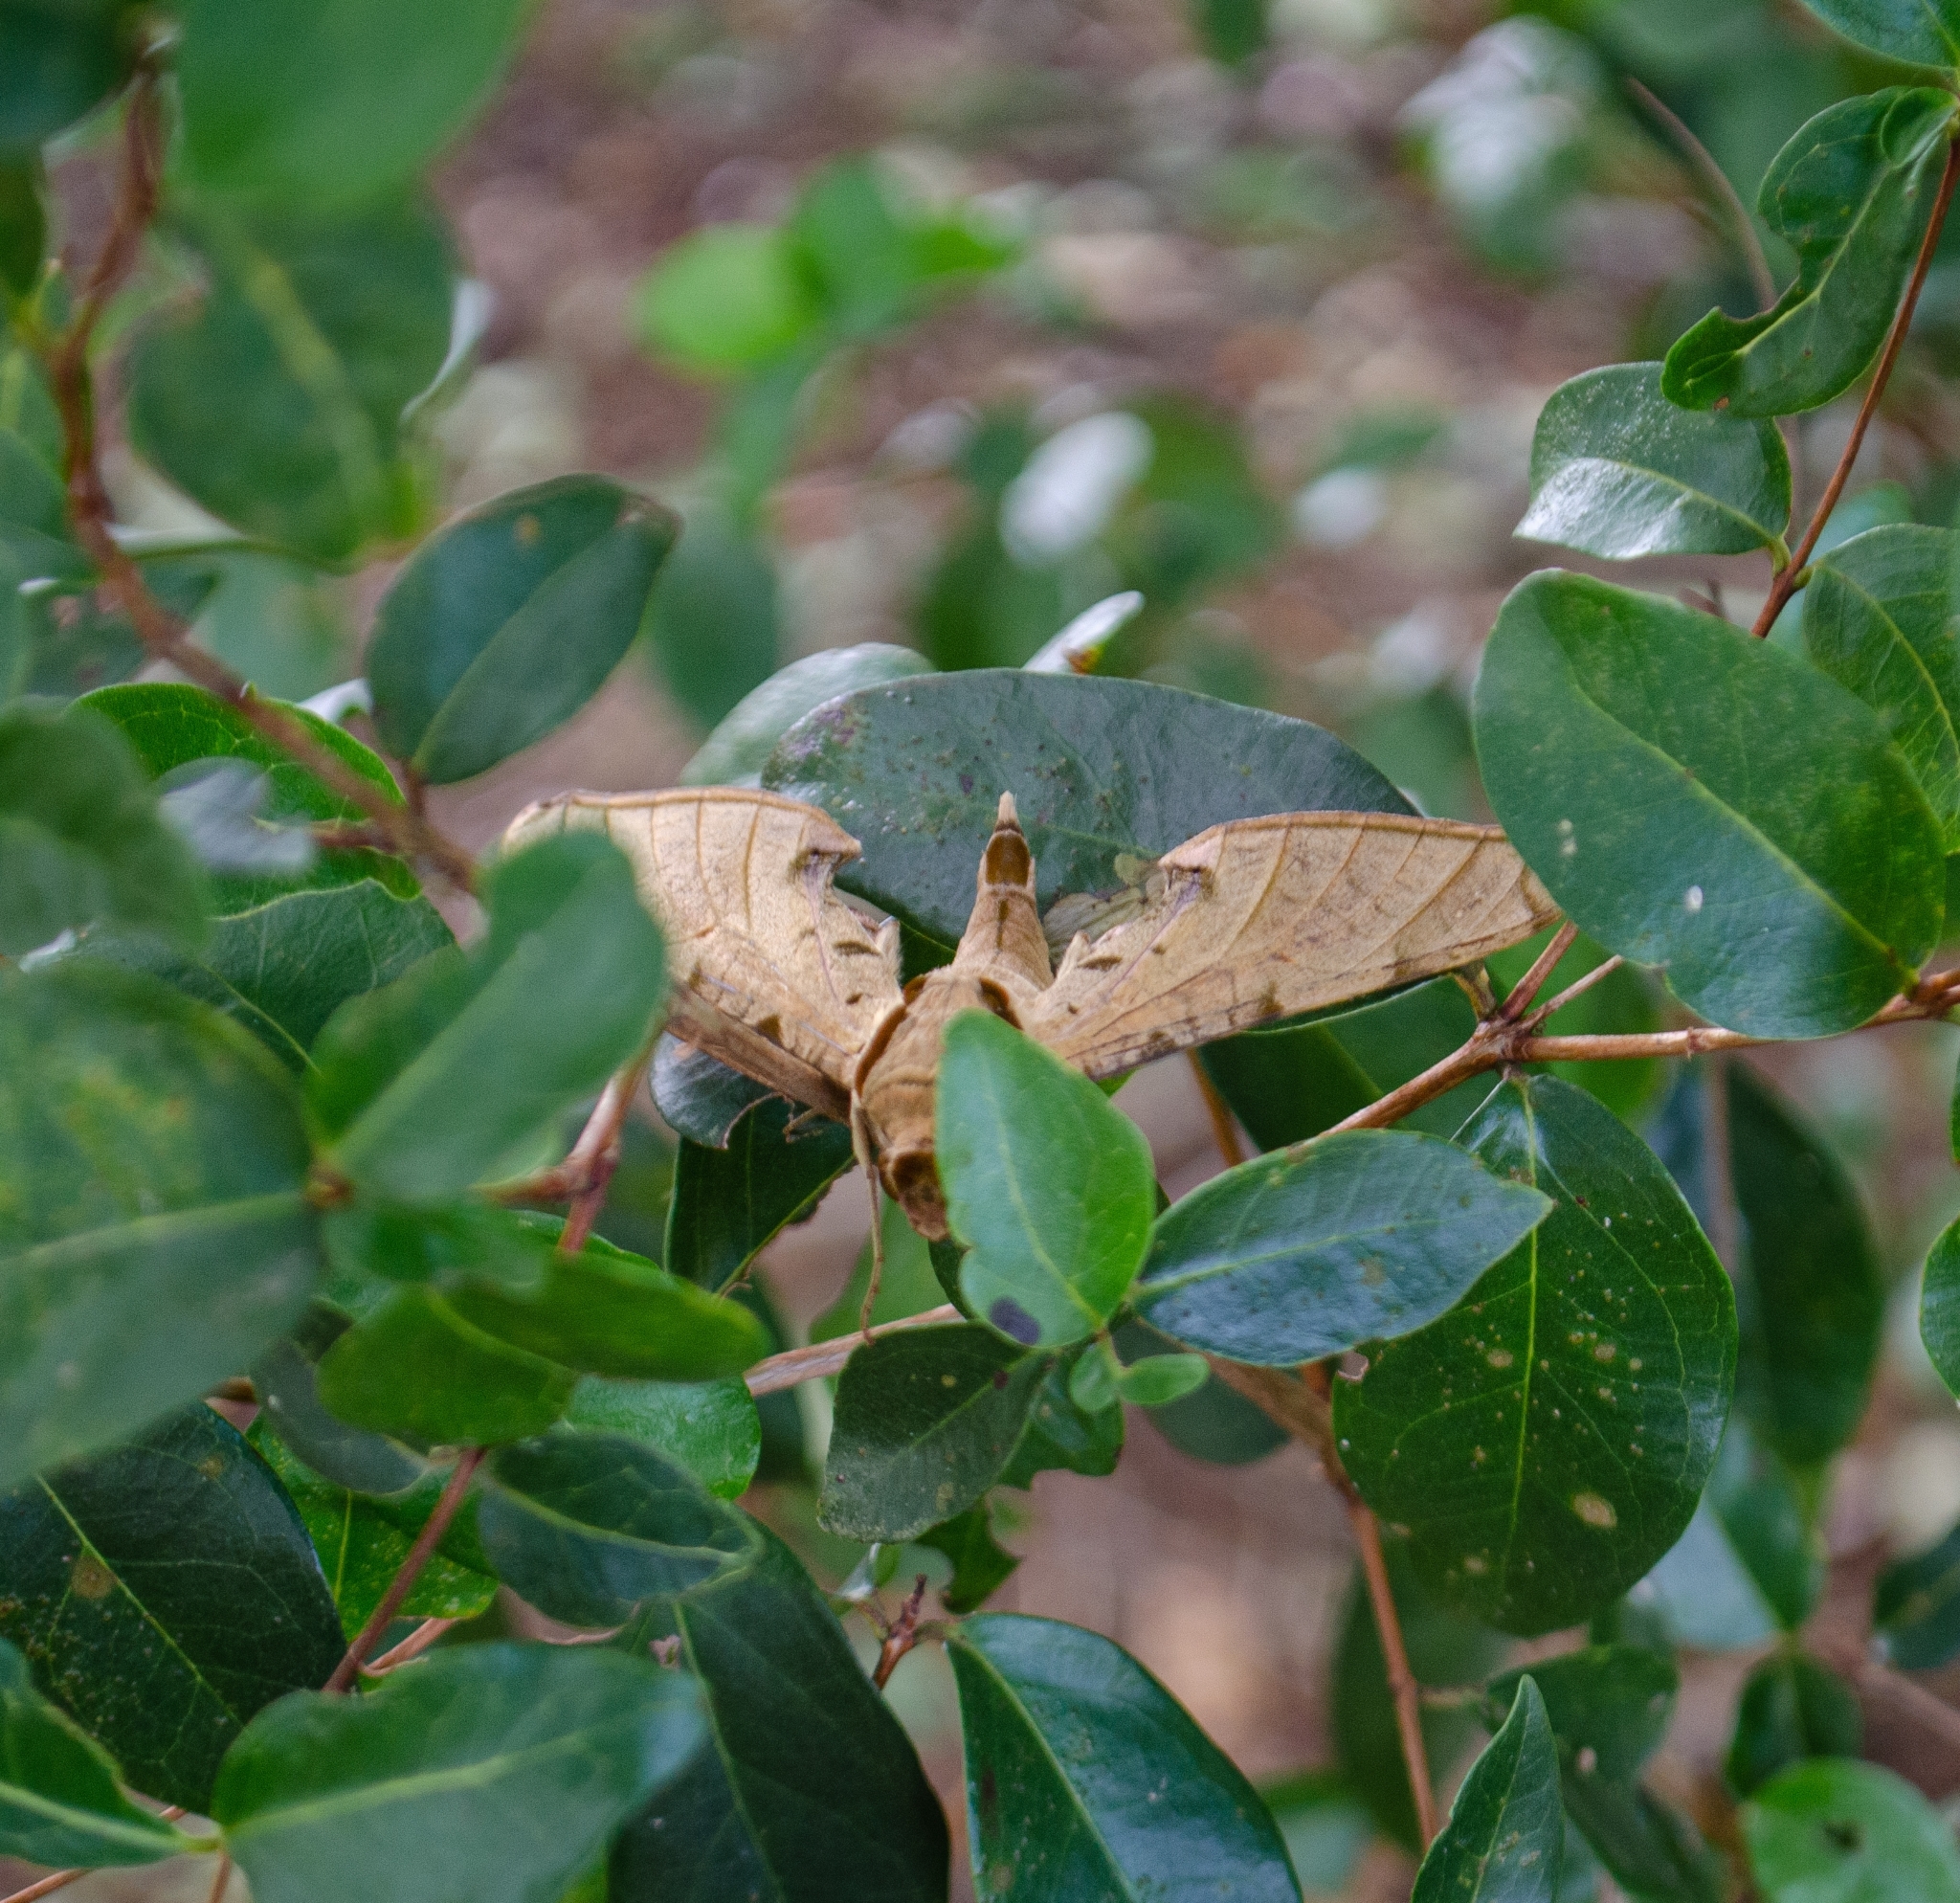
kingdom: Animalia
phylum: Arthropoda
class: Insecta
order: Lepidoptera
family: Sphingidae
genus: Protambulyx
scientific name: Protambulyx strigilis
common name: Streaked sphinx
